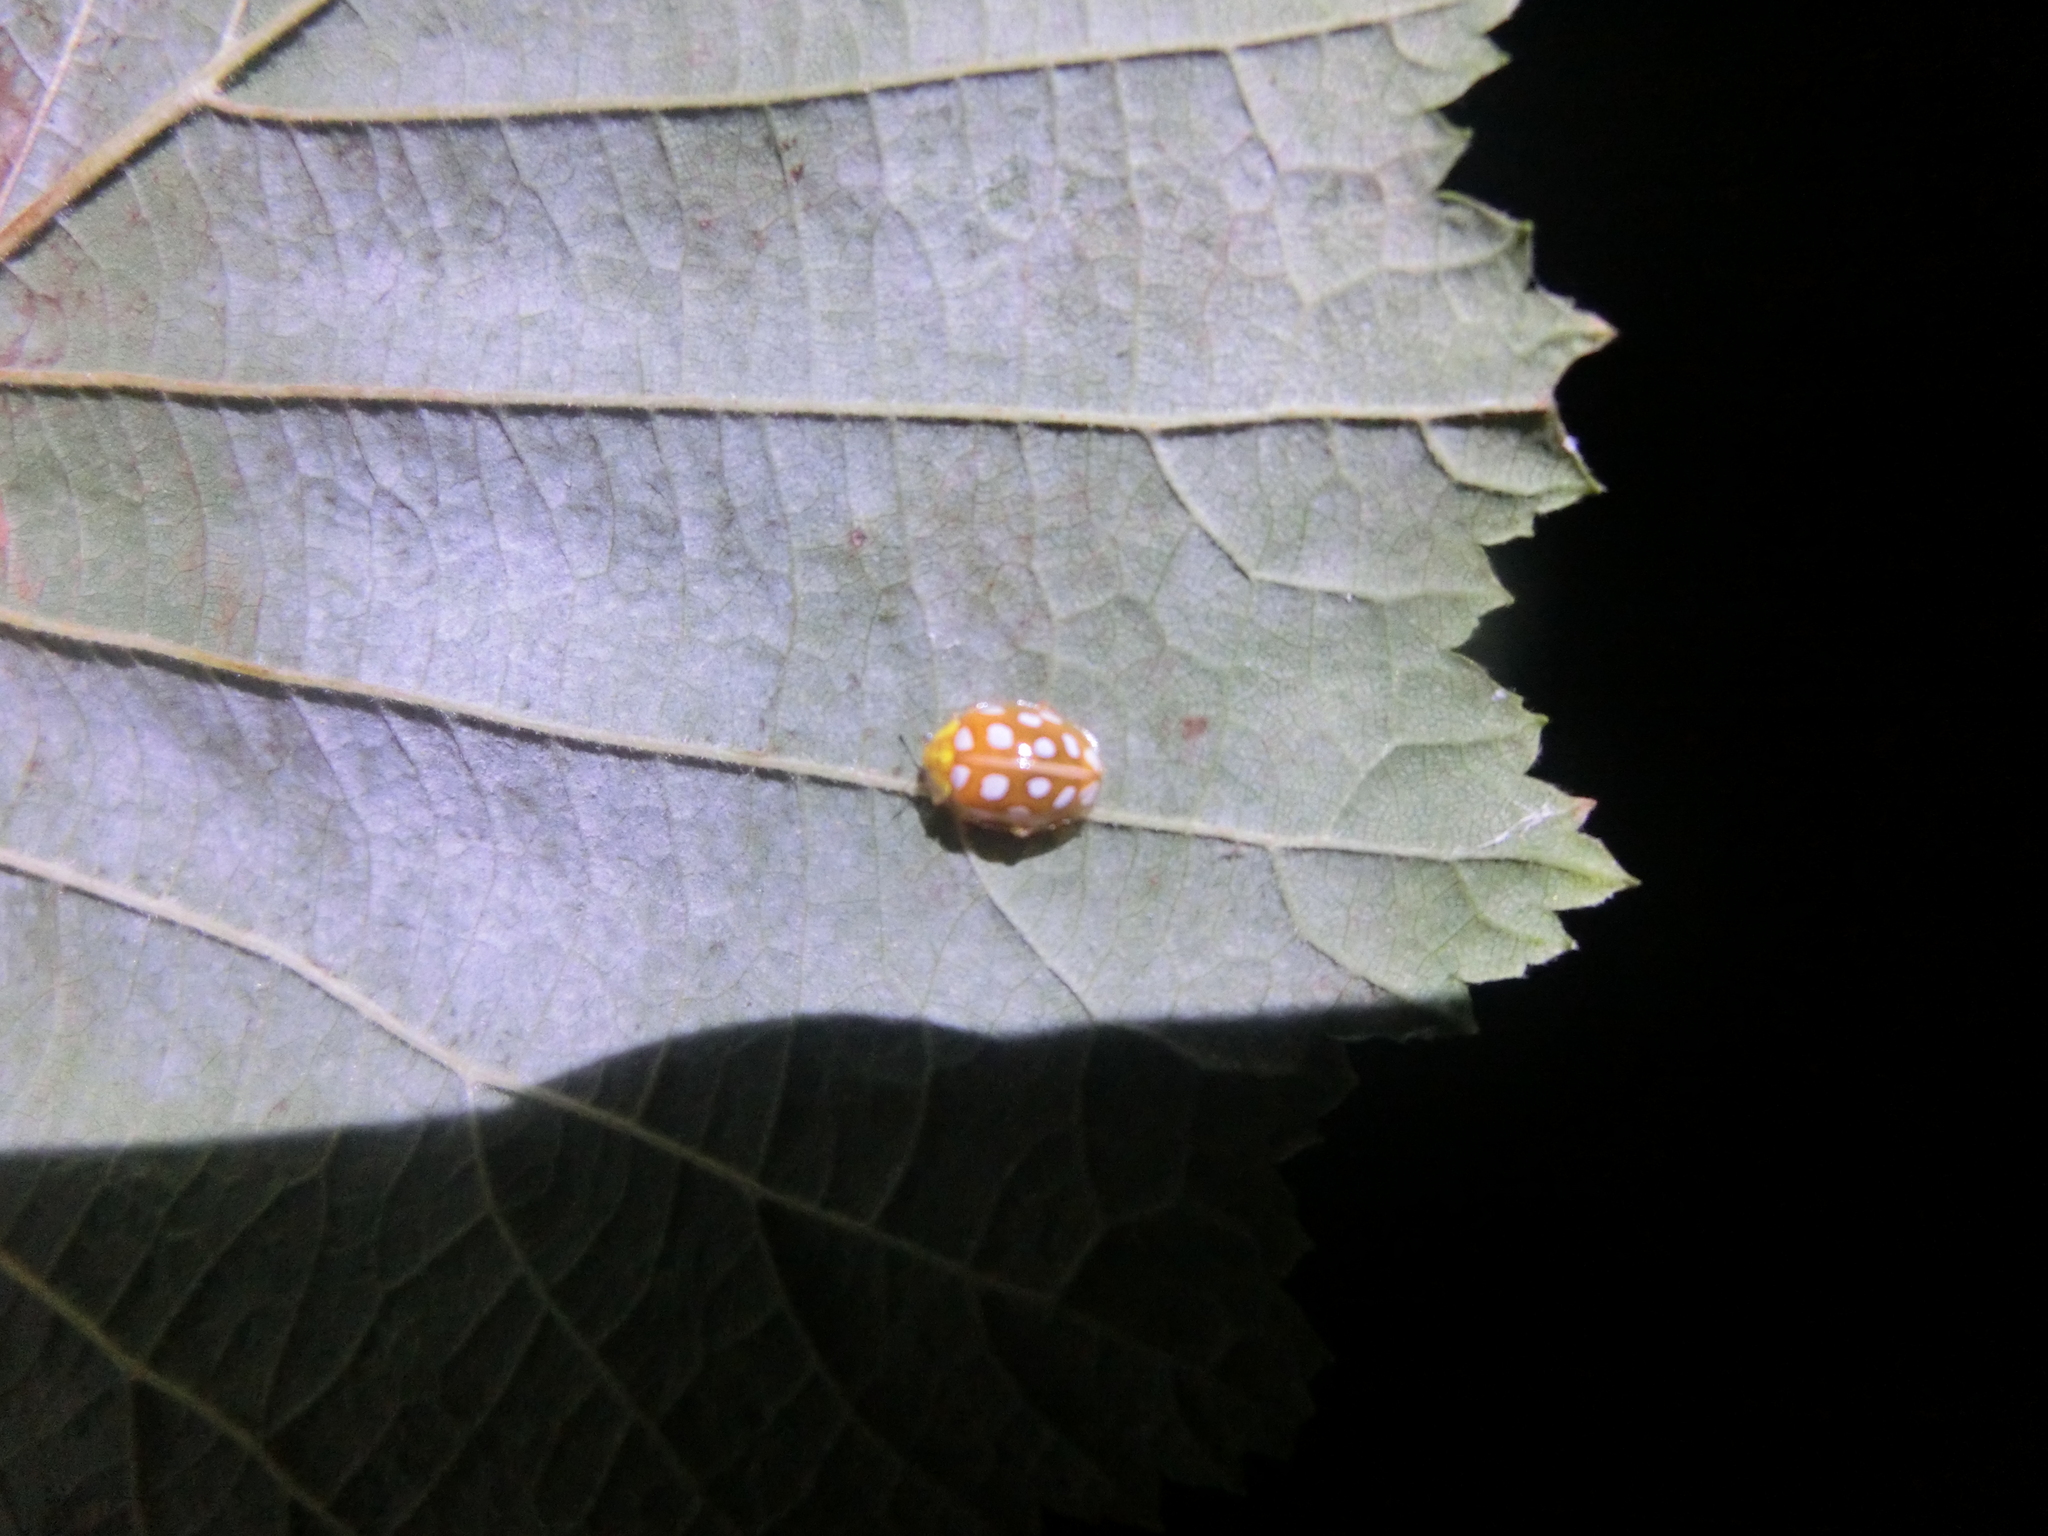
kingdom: Animalia
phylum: Arthropoda
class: Insecta
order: Coleoptera
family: Coccinellidae
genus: Halyzia
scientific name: Halyzia sedecimguttata
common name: Orange ladybird
